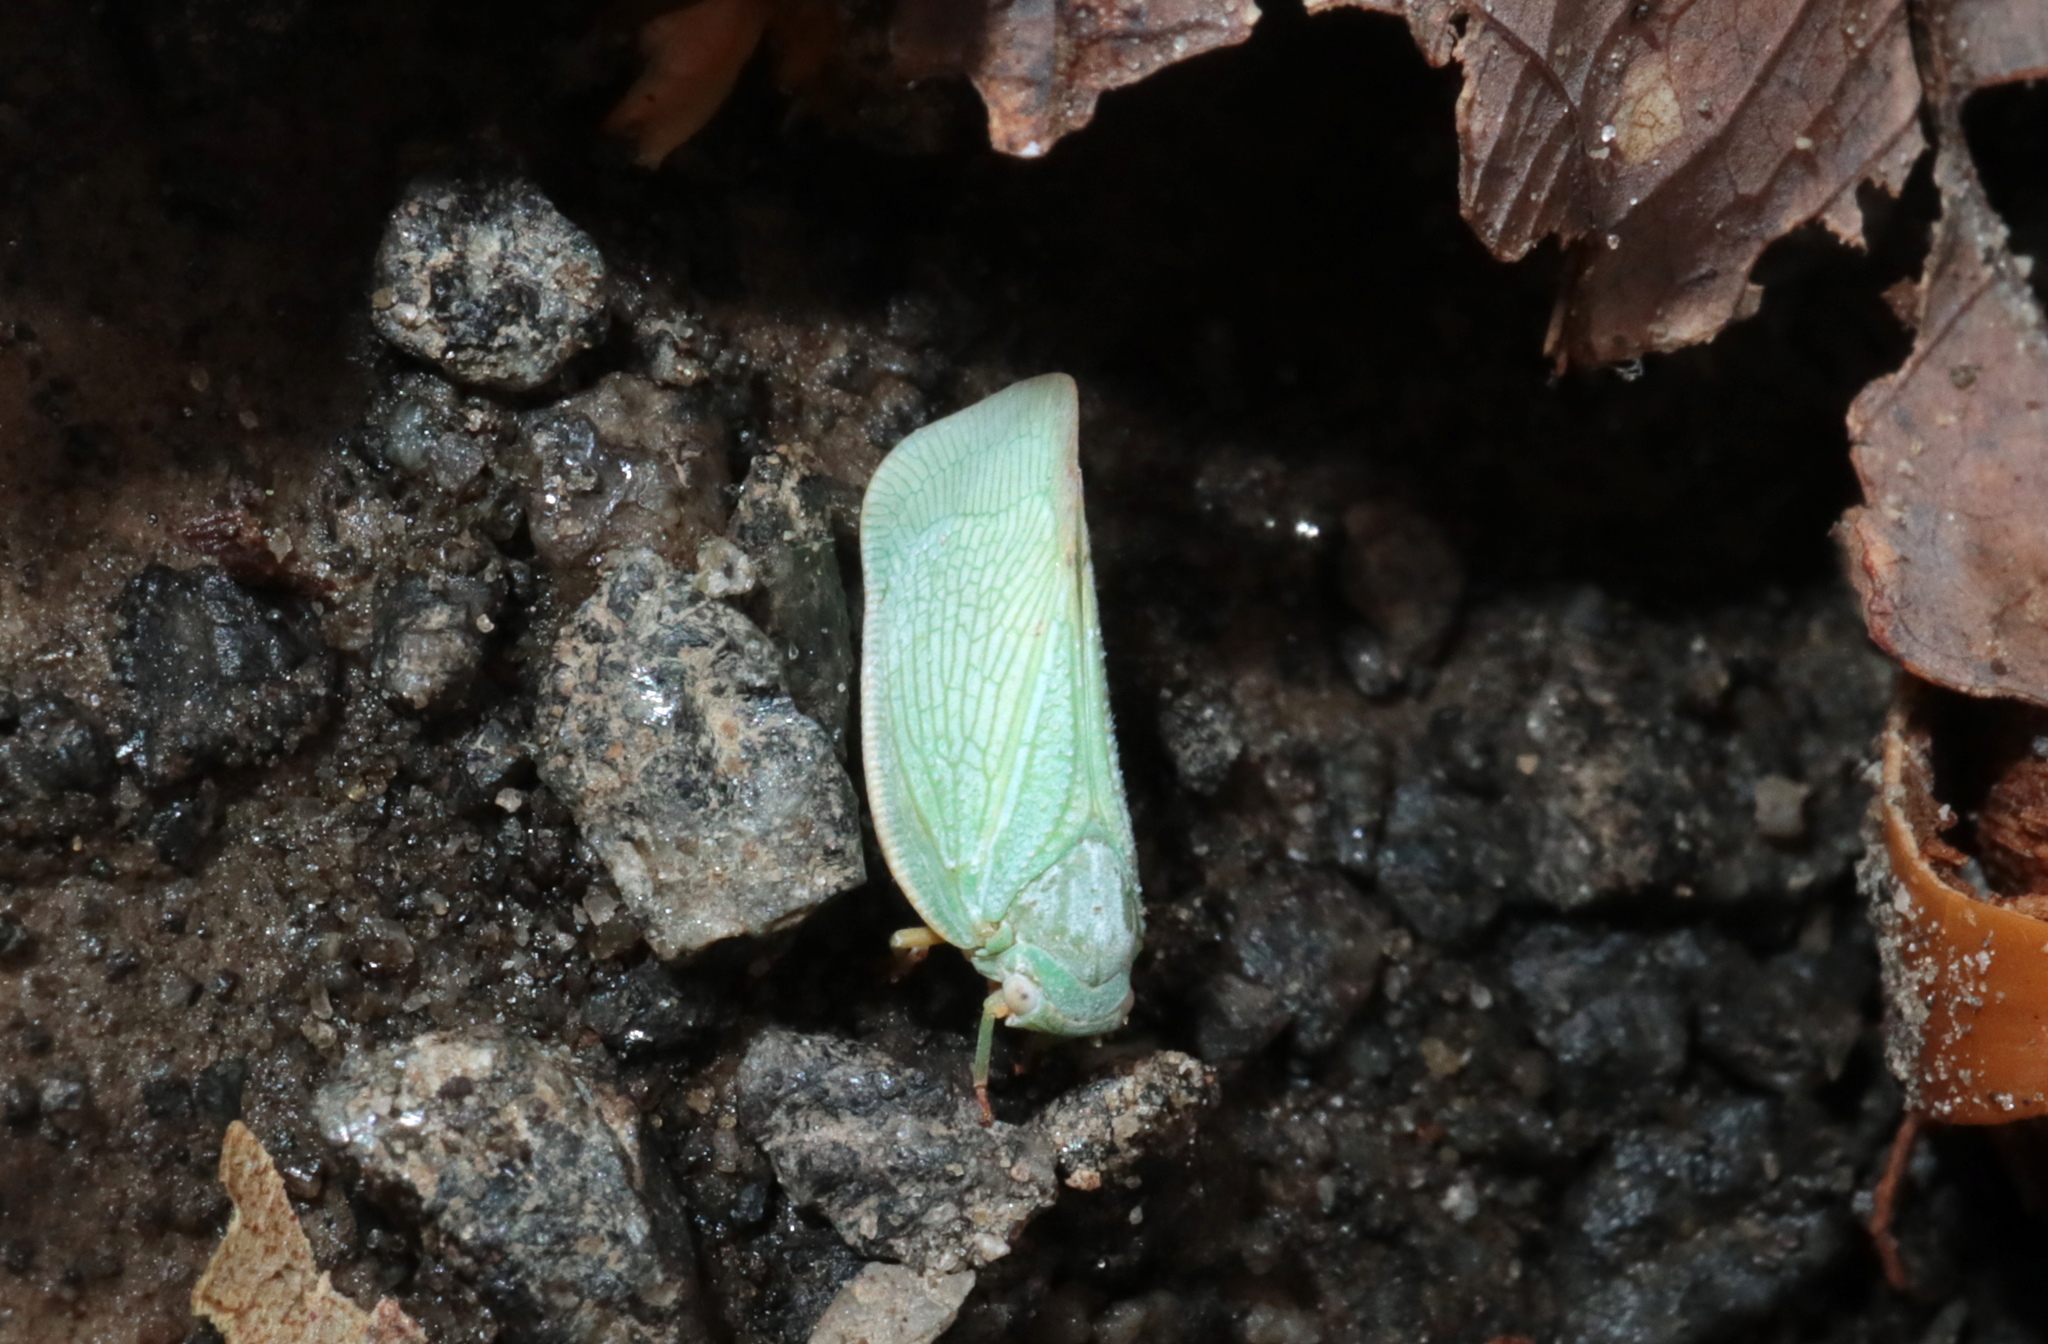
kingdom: Animalia
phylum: Arthropoda
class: Insecta
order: Hemiptera
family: Flatidae
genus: Flatormenis
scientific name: Flatormenis proxima
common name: Northern flatid planthopper
